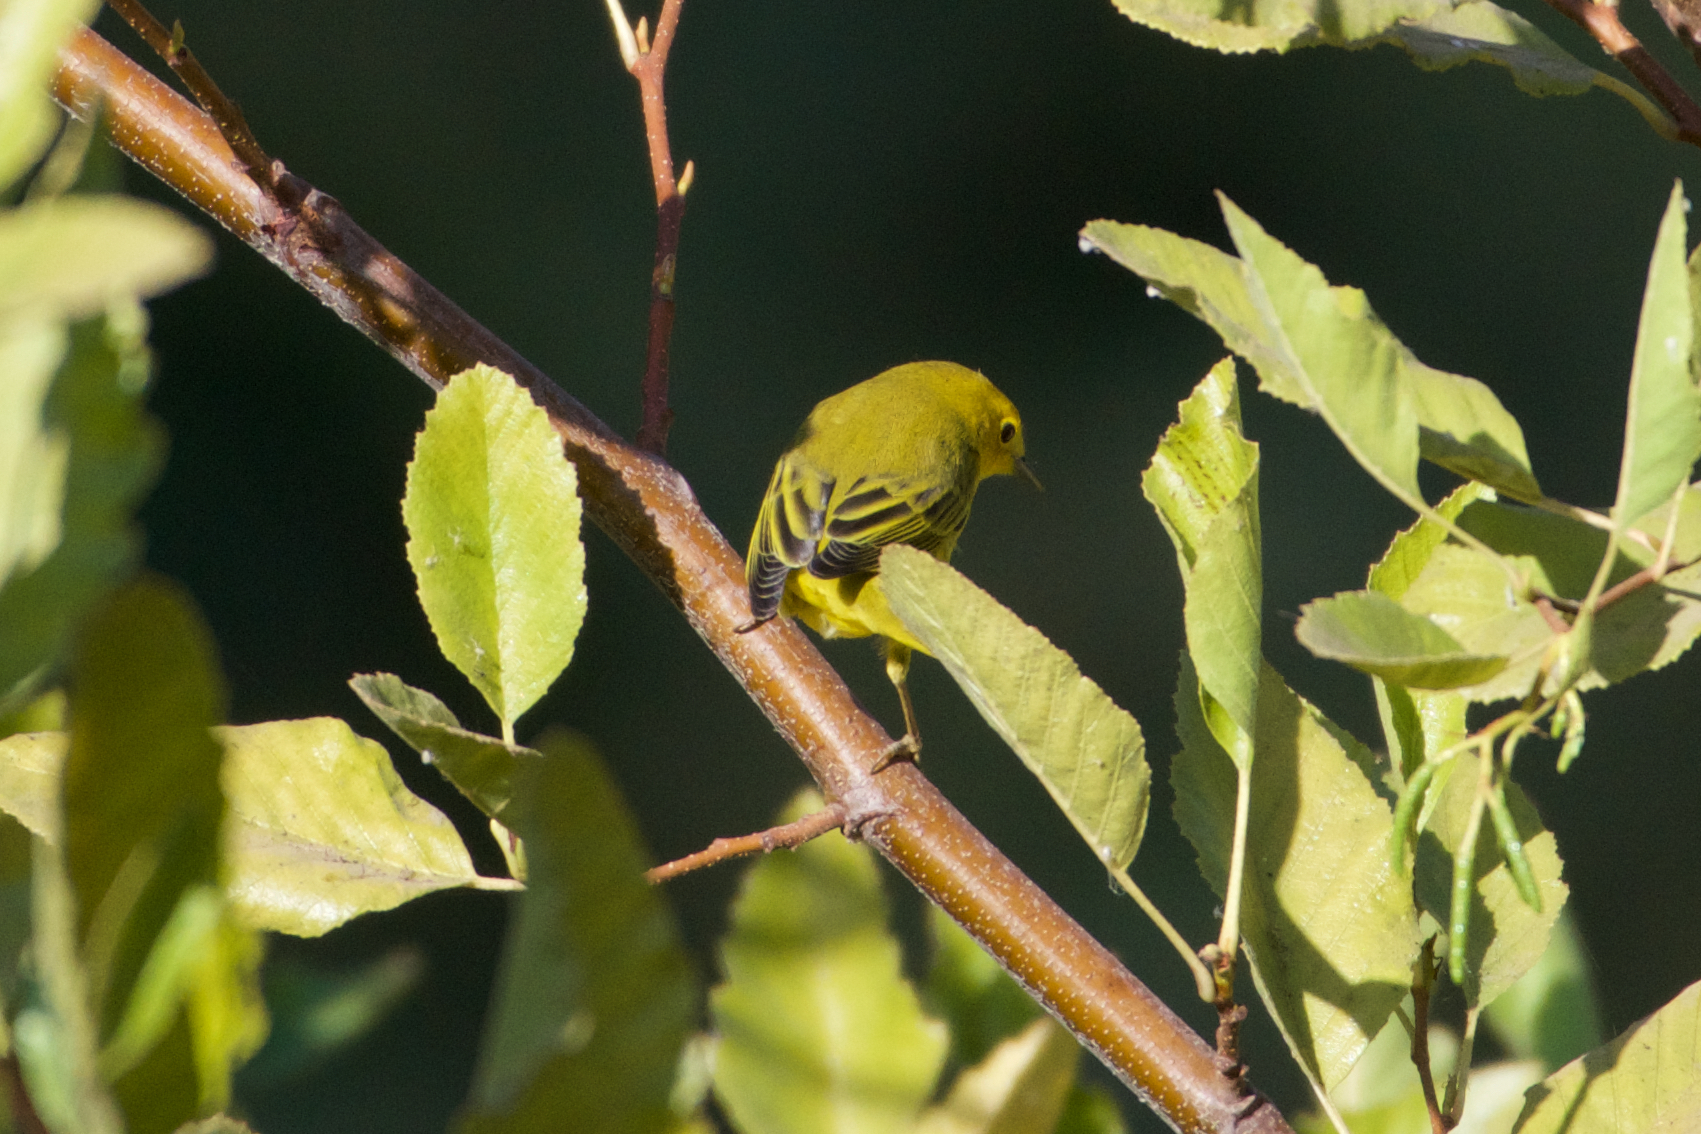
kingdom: Animalia
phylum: Chordata
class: Aves
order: Passeriformes
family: Parulidae
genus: Setophaga
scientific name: Setophaga petechia
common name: Yellow warbler
